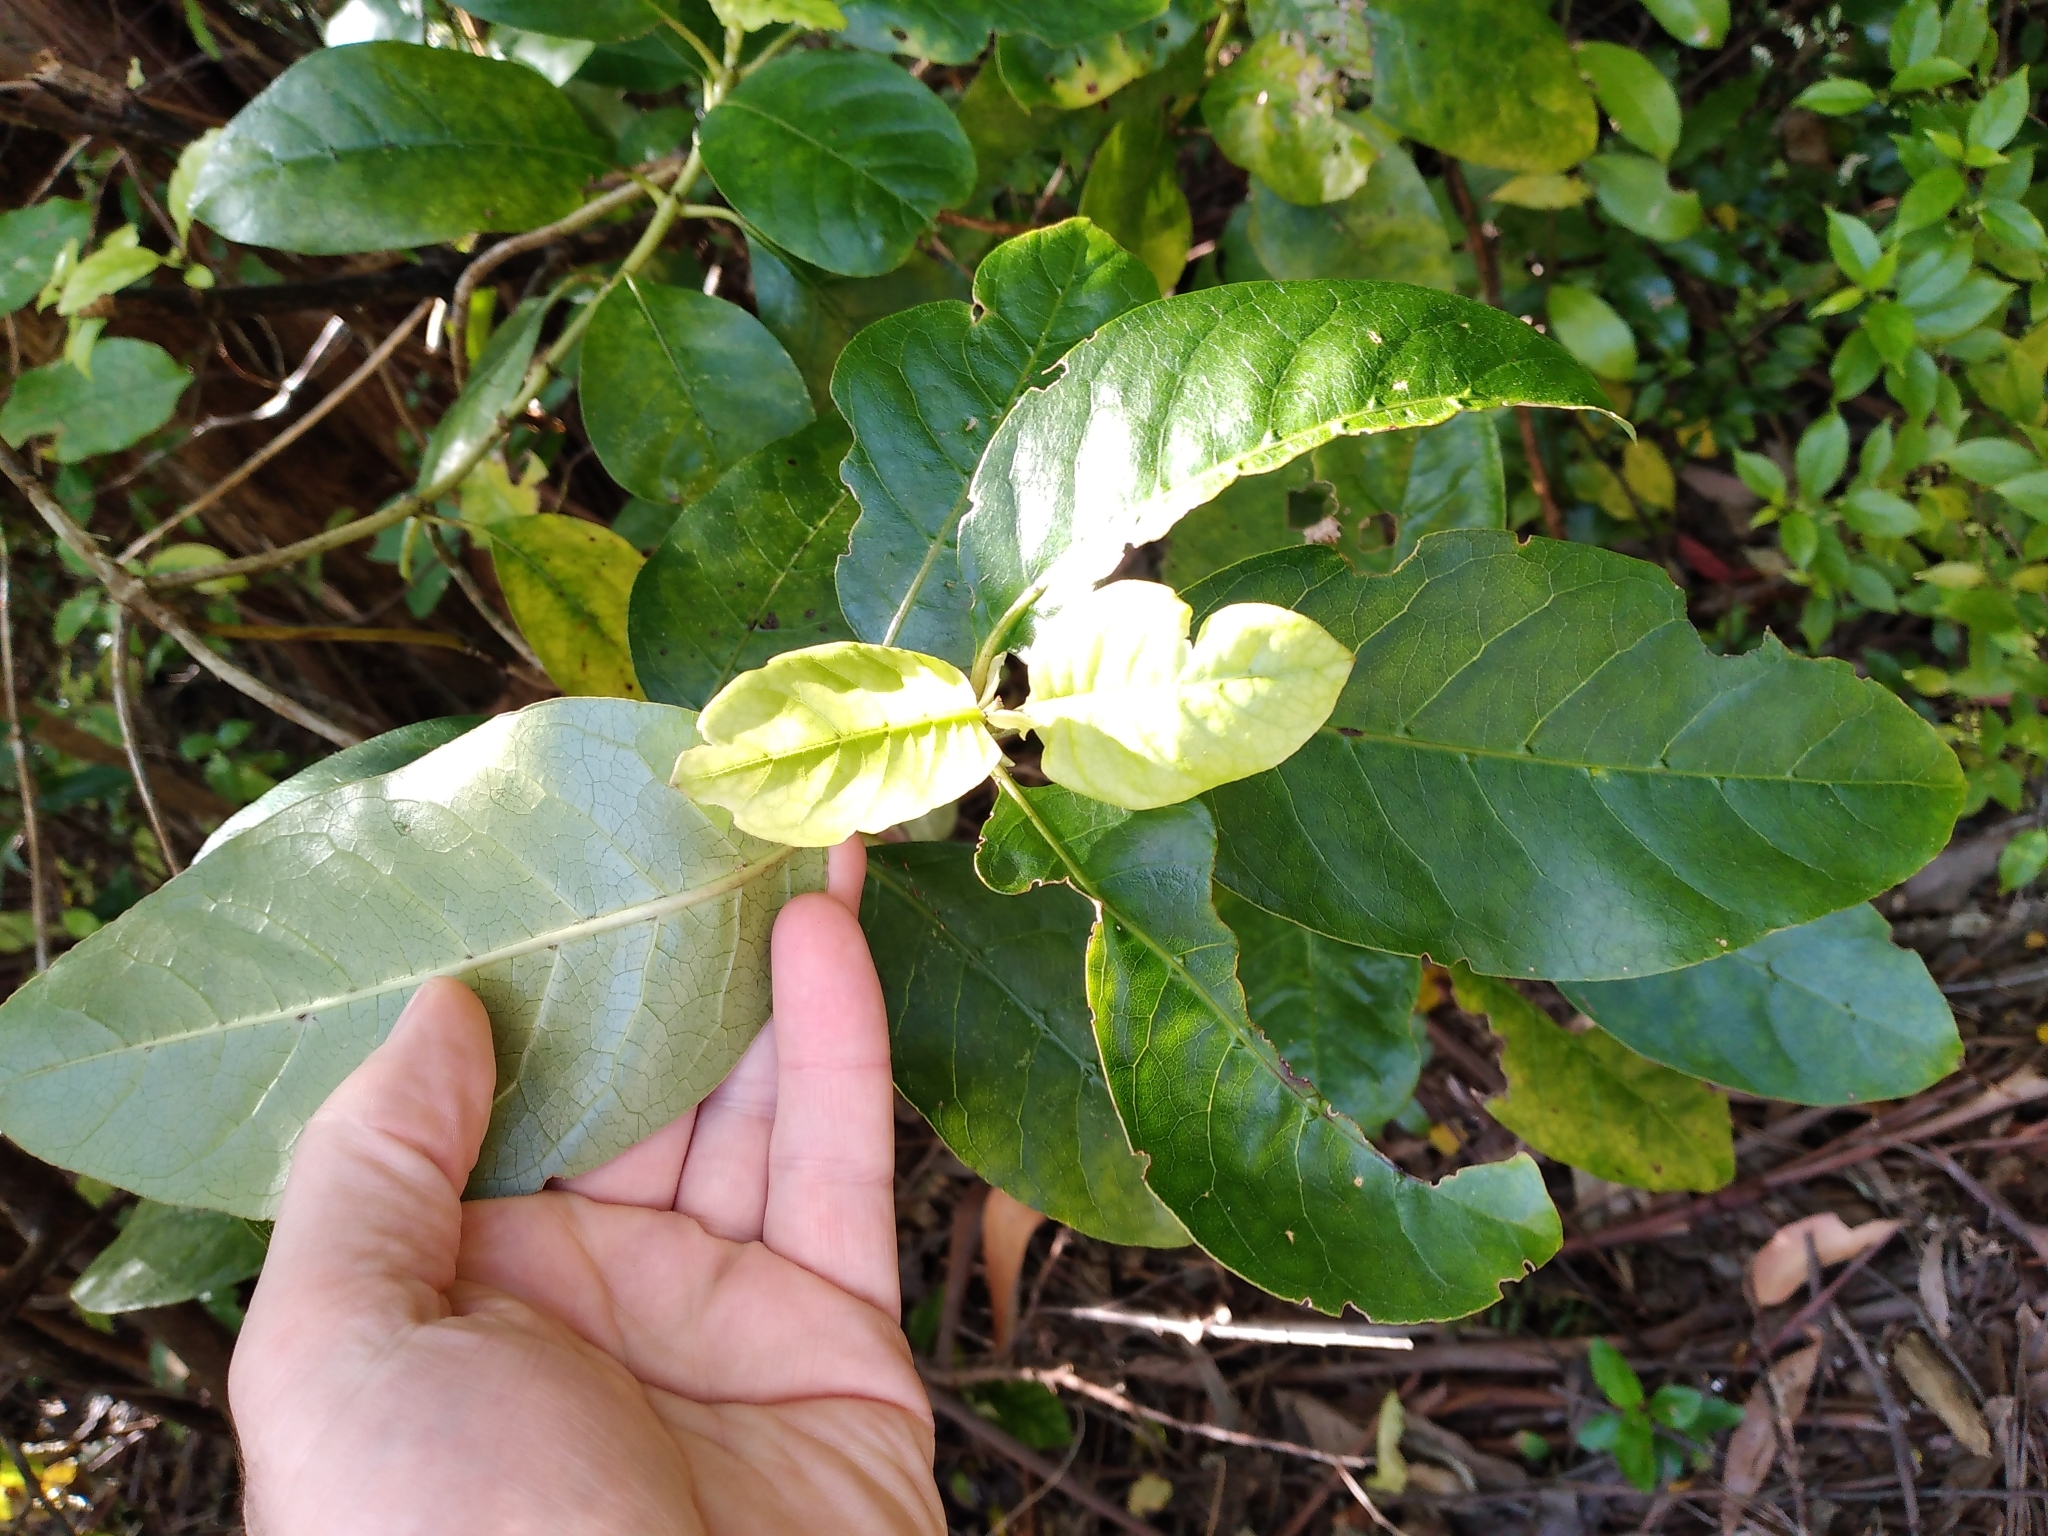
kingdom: Plantae
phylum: Tracheophyta
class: Magnoliopsida
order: Gentianales
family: Rubiaceae
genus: Coprosma
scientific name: Coprosma autumnalis
